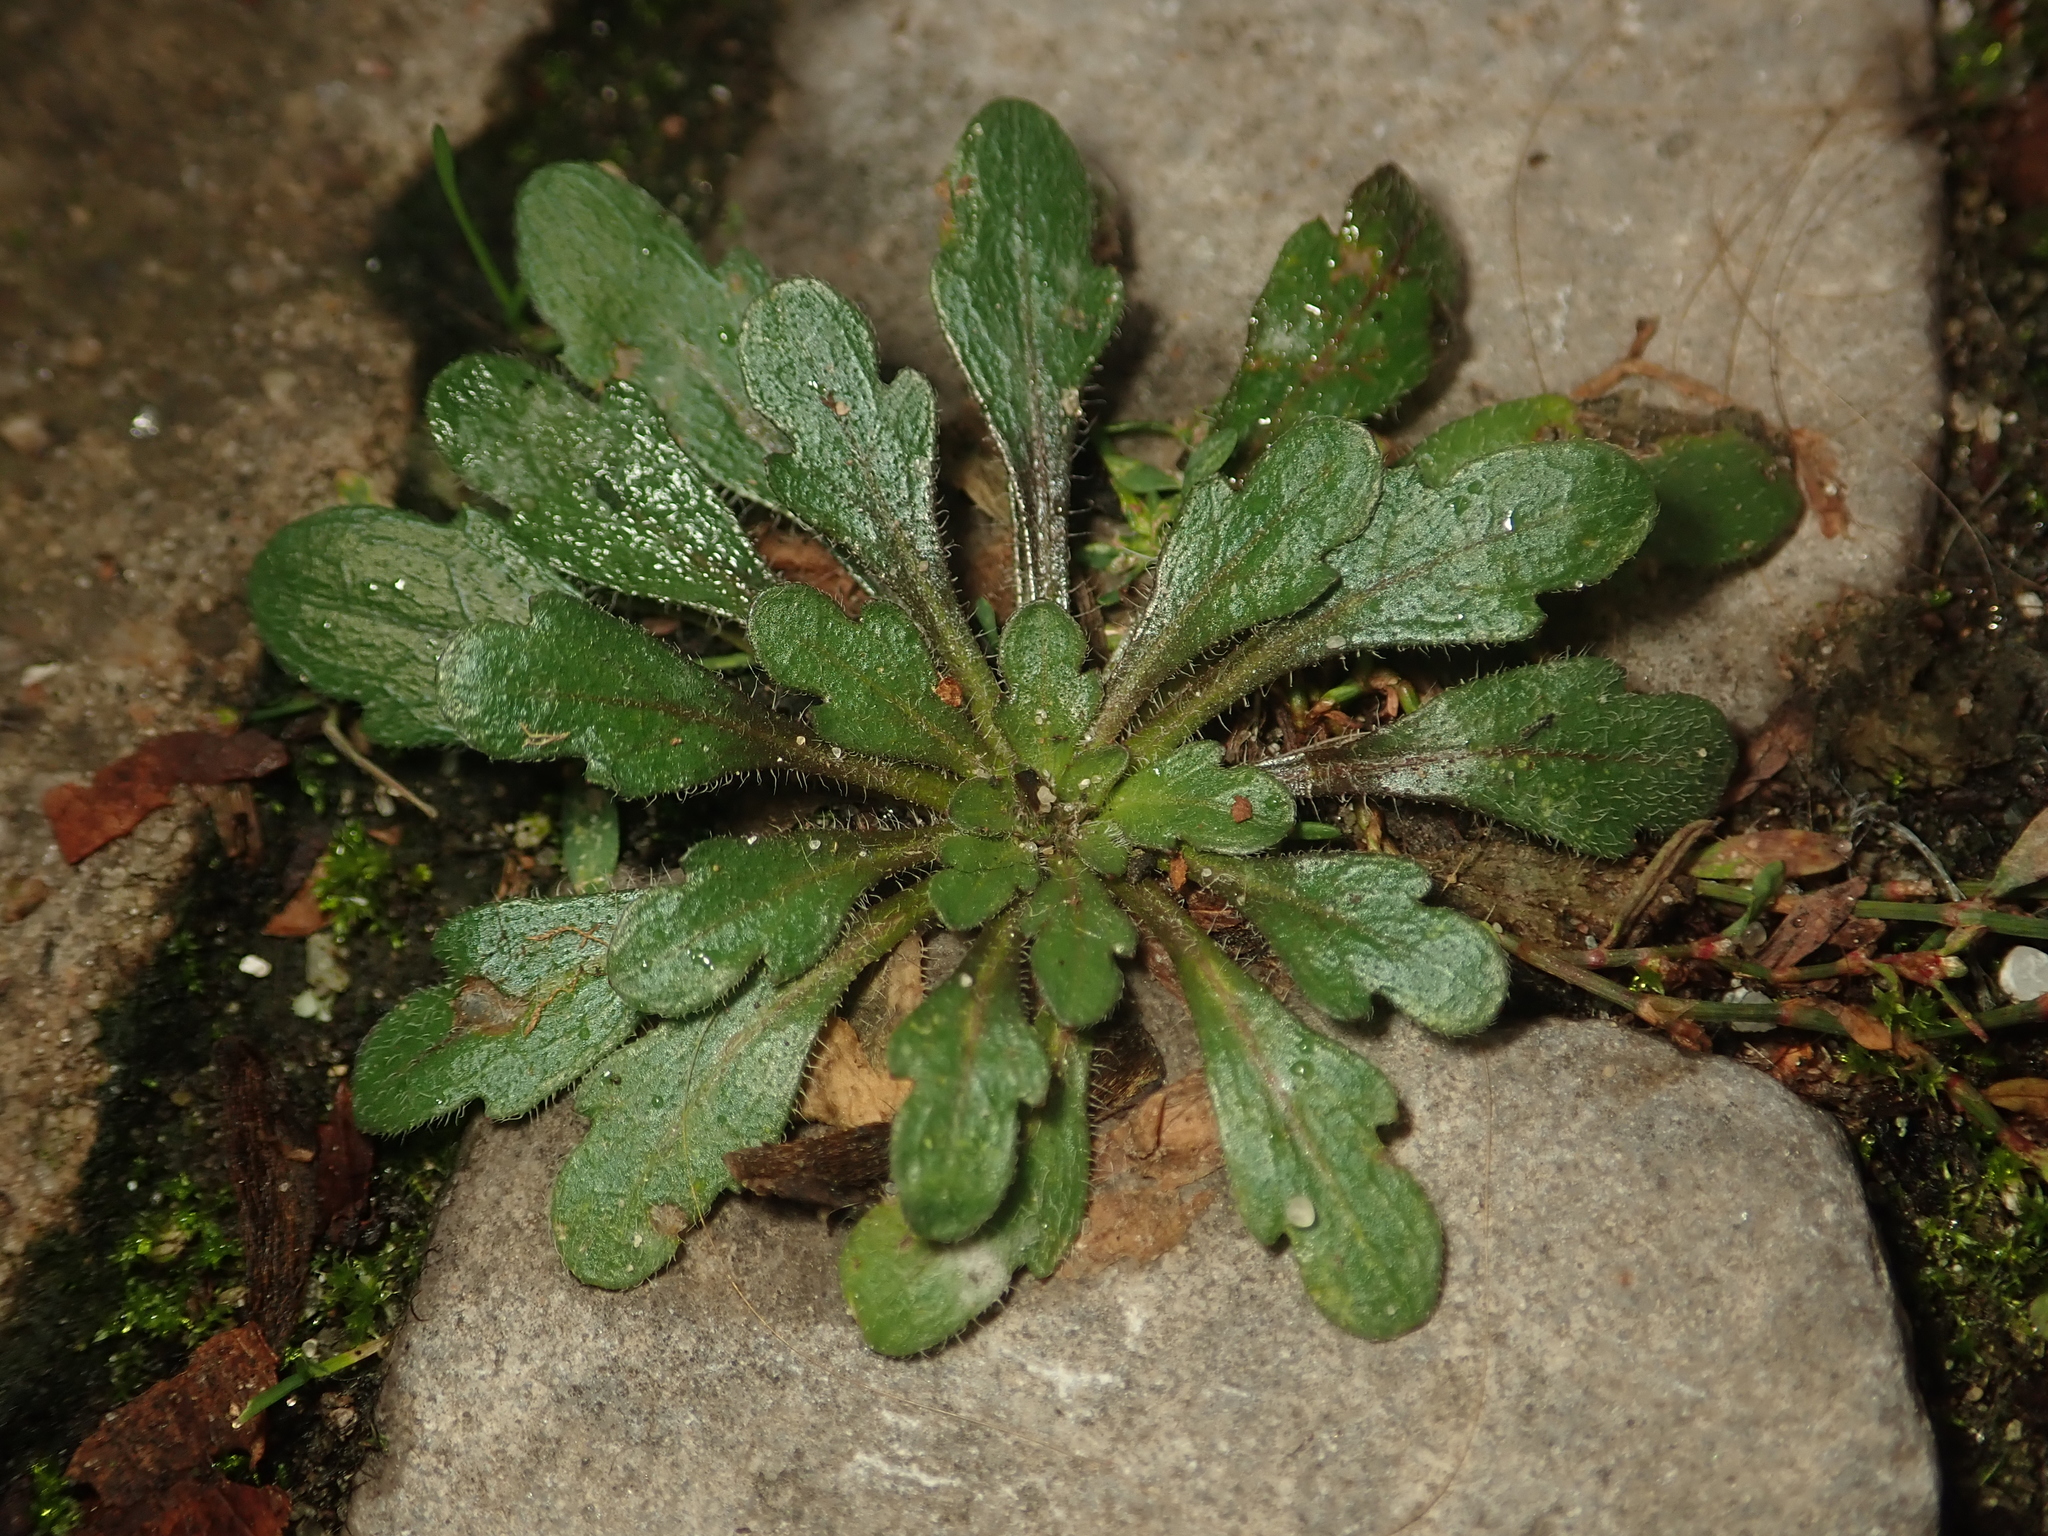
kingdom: Plantae
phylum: Tracheophyta
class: Magnoliopsida
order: Asterales
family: Asteraceae
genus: Erigeron
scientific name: Erigeron canadensis
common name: Canadian fleabane
